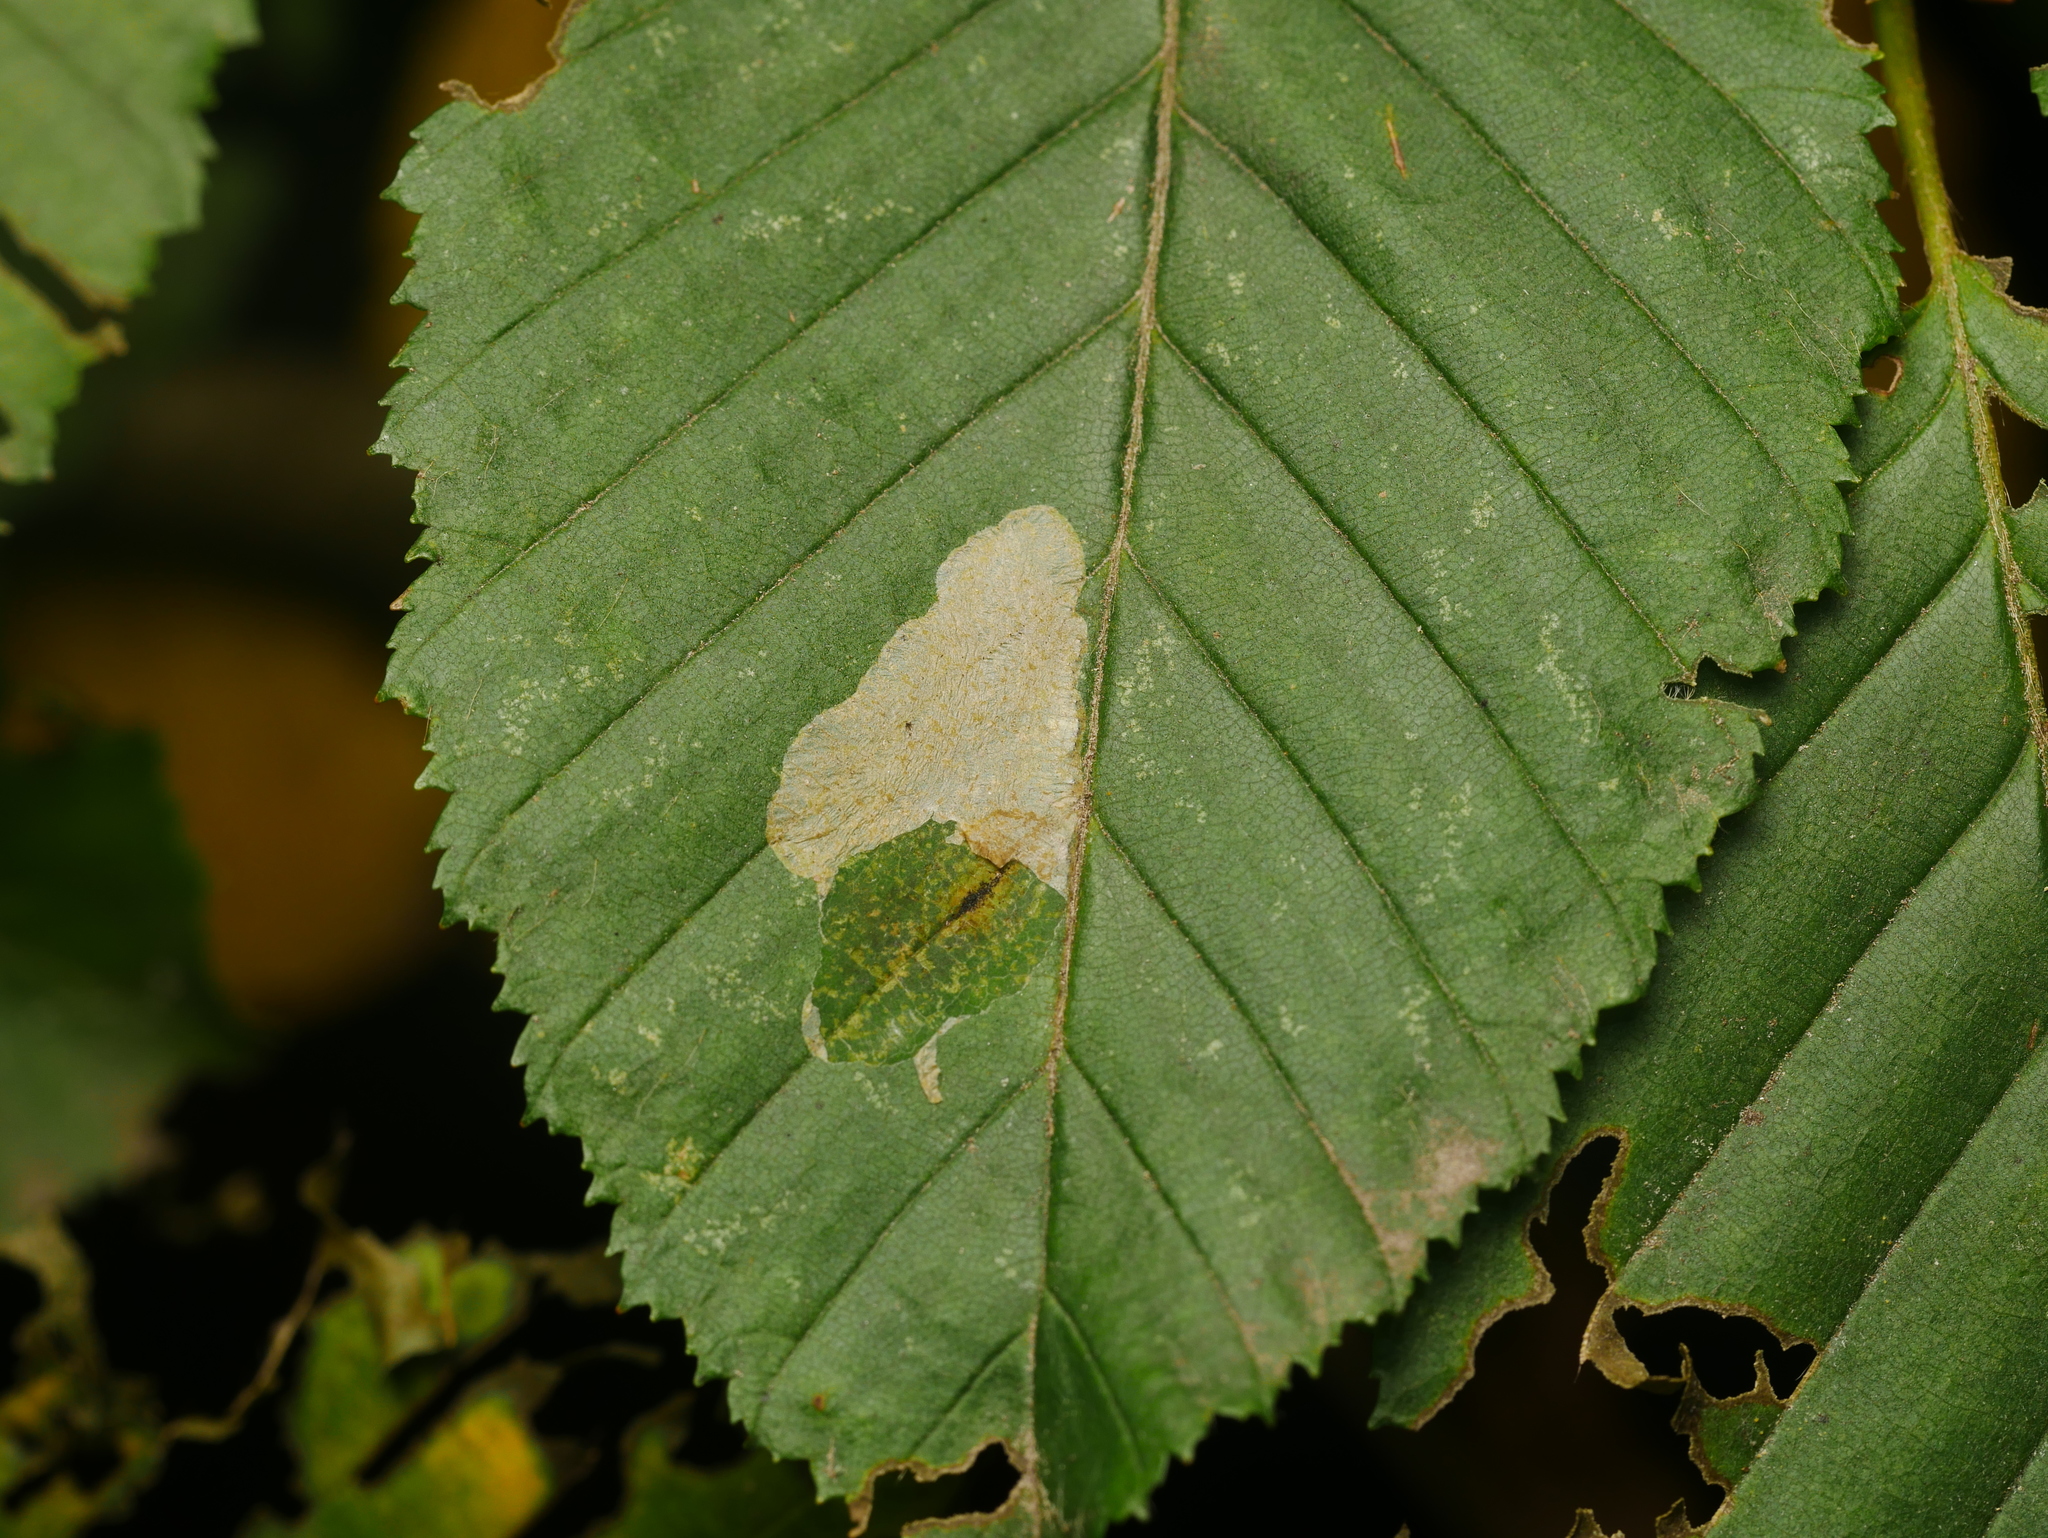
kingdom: Animalia
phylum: Arthropoda
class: Insecta
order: Lepidoptera
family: Gracillariidae
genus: Phyllonorycter
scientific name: Phyllonorycter esperella
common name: Dark hornbeam midget
